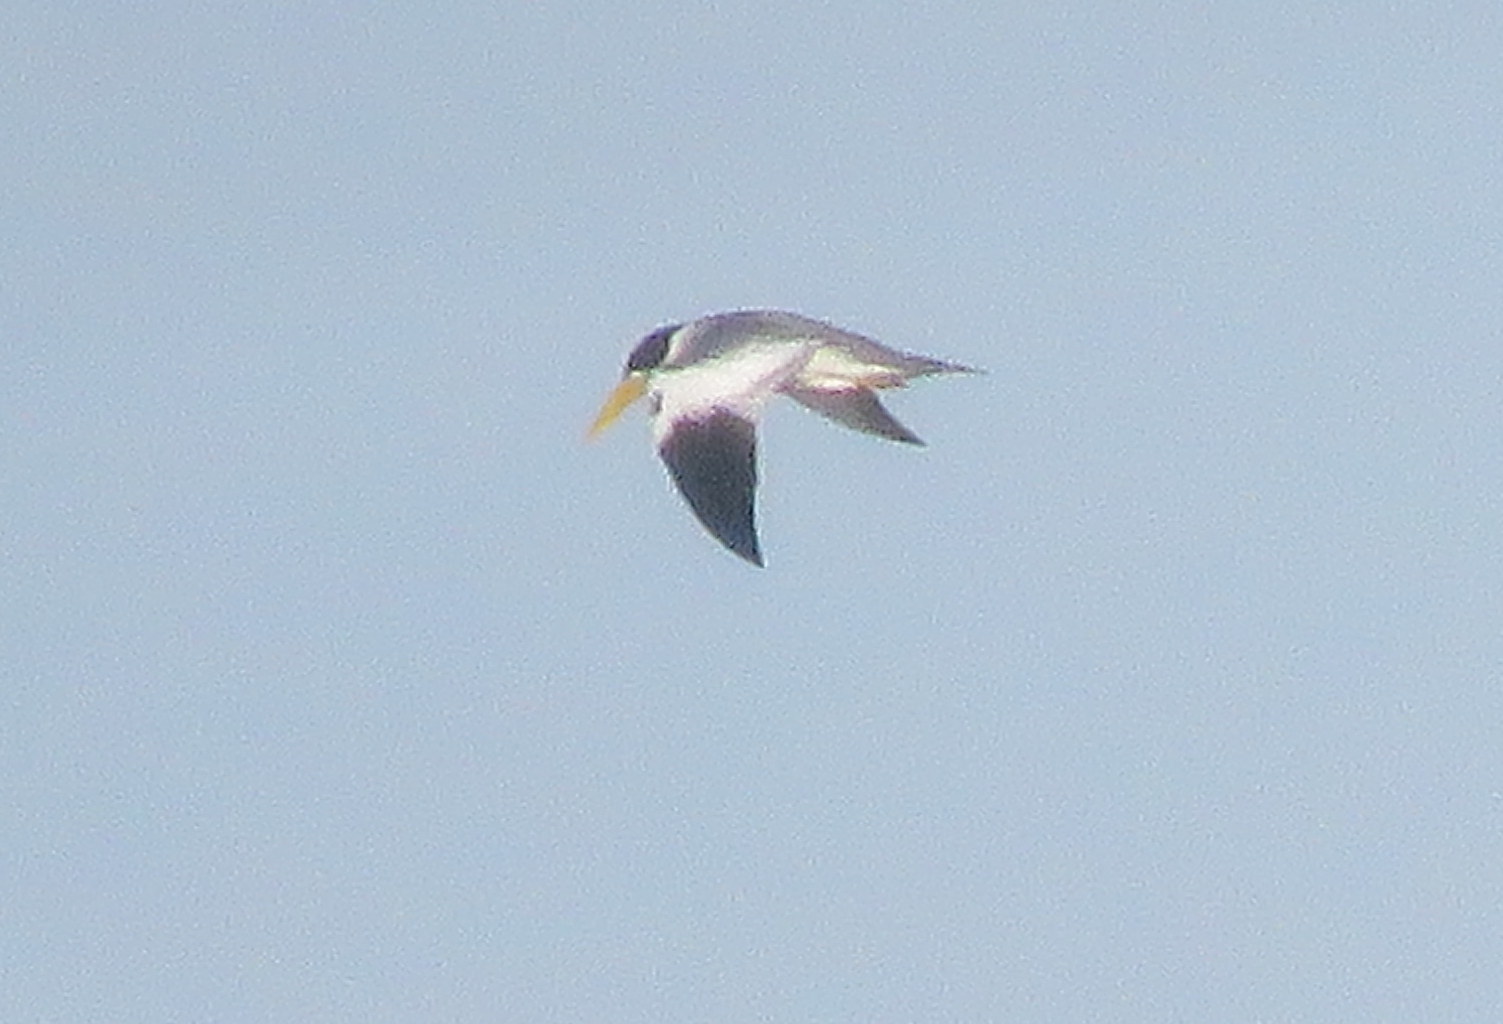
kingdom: Animalia
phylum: Chordata
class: Aves
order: Charadriiformes
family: Laridae
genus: Phaetusa
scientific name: Phaetusa simplex
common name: Large-billed tern
